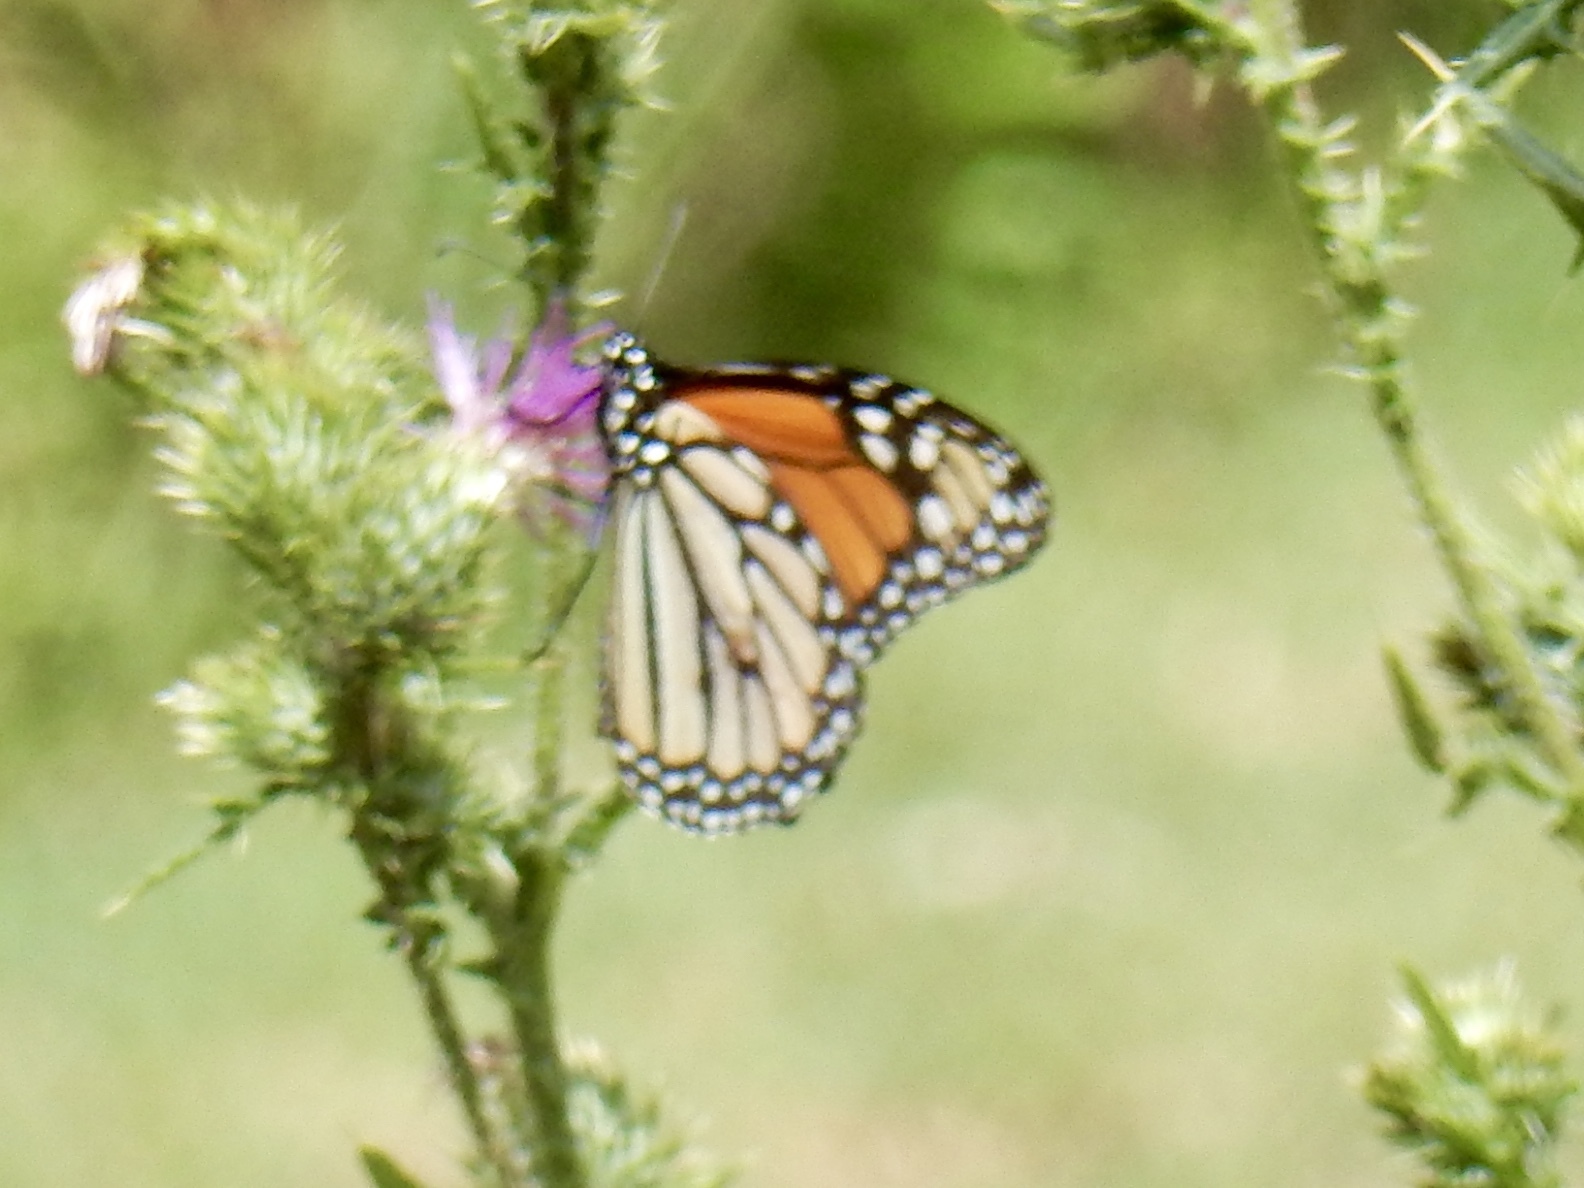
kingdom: Animalia
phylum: Arthropoda
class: Insecta
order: Lepidoptera
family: Nymphalidae
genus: Danaus
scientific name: Danaus plexippus
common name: Monarch
